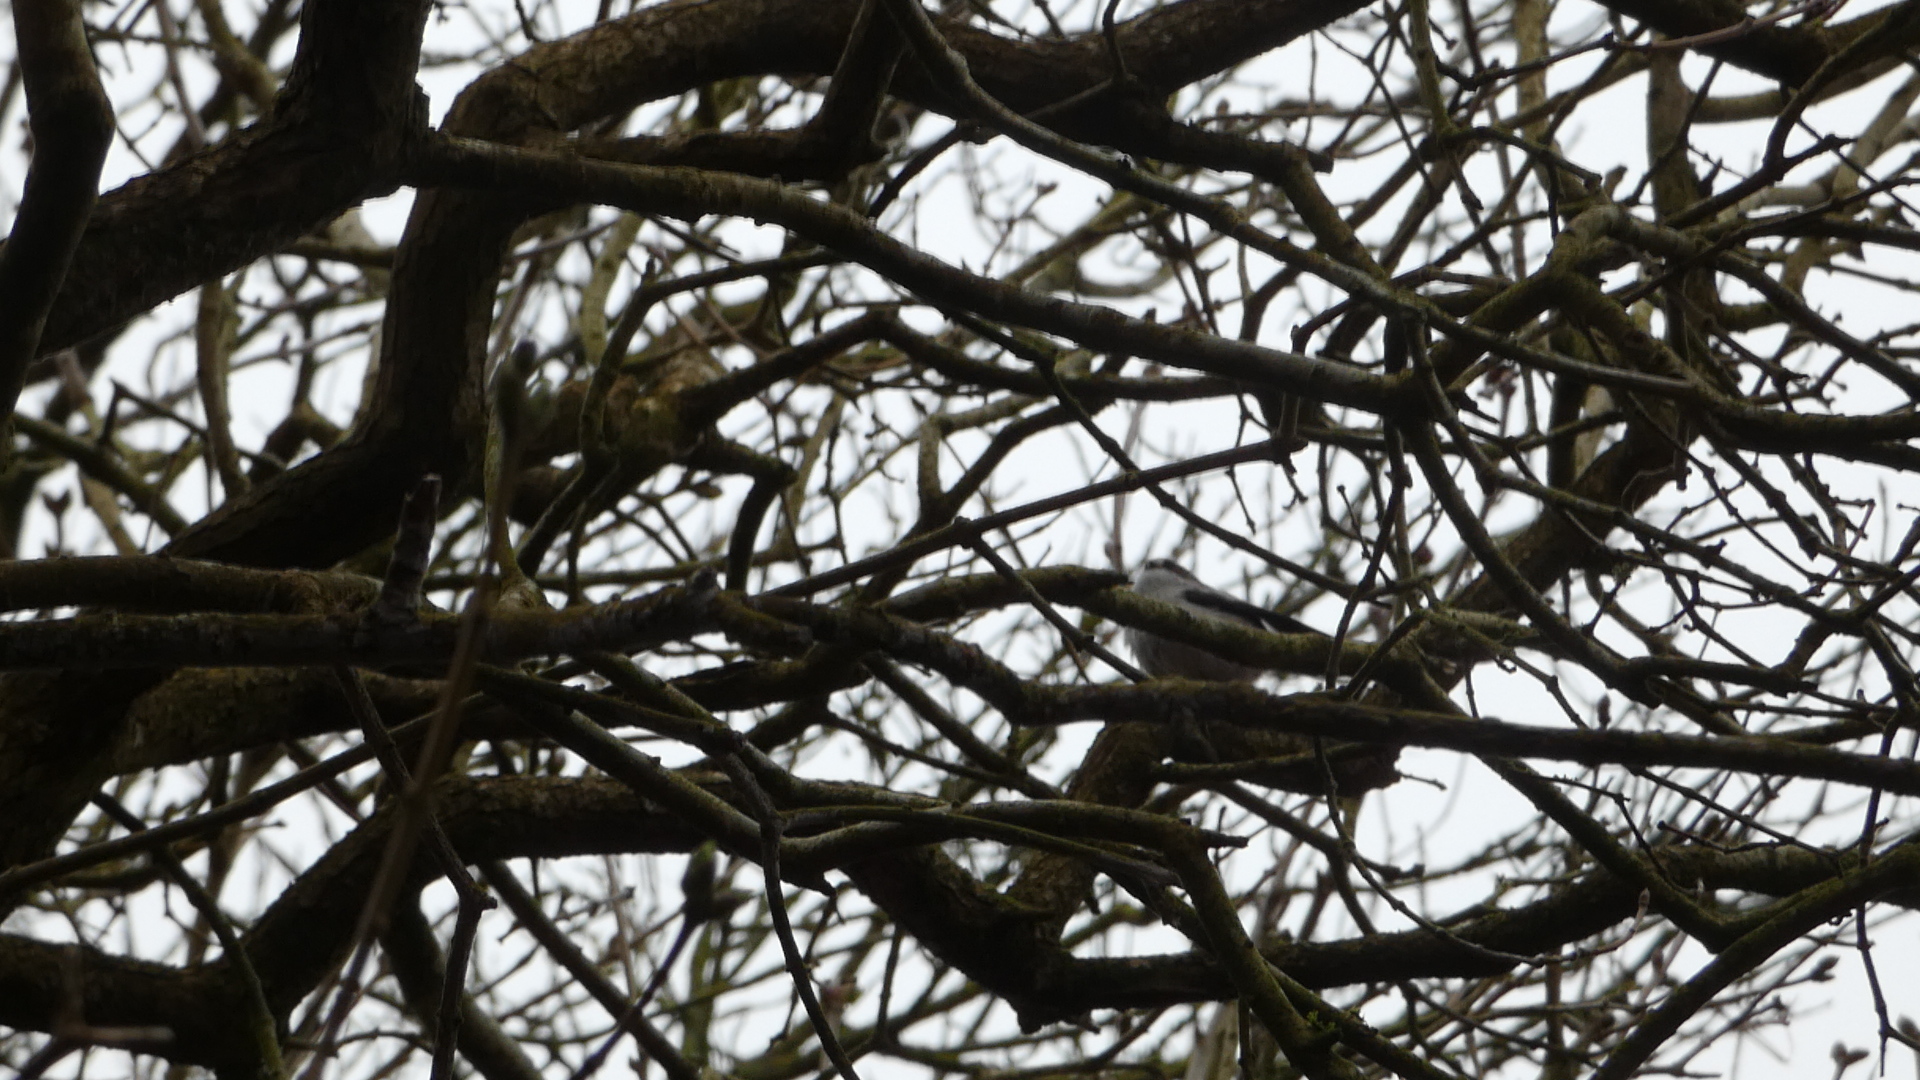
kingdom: Animalia
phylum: Chordata
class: Aves
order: Passeriformes
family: Aegithalidae
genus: Aegithalos
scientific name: Aegithalos caudatus
